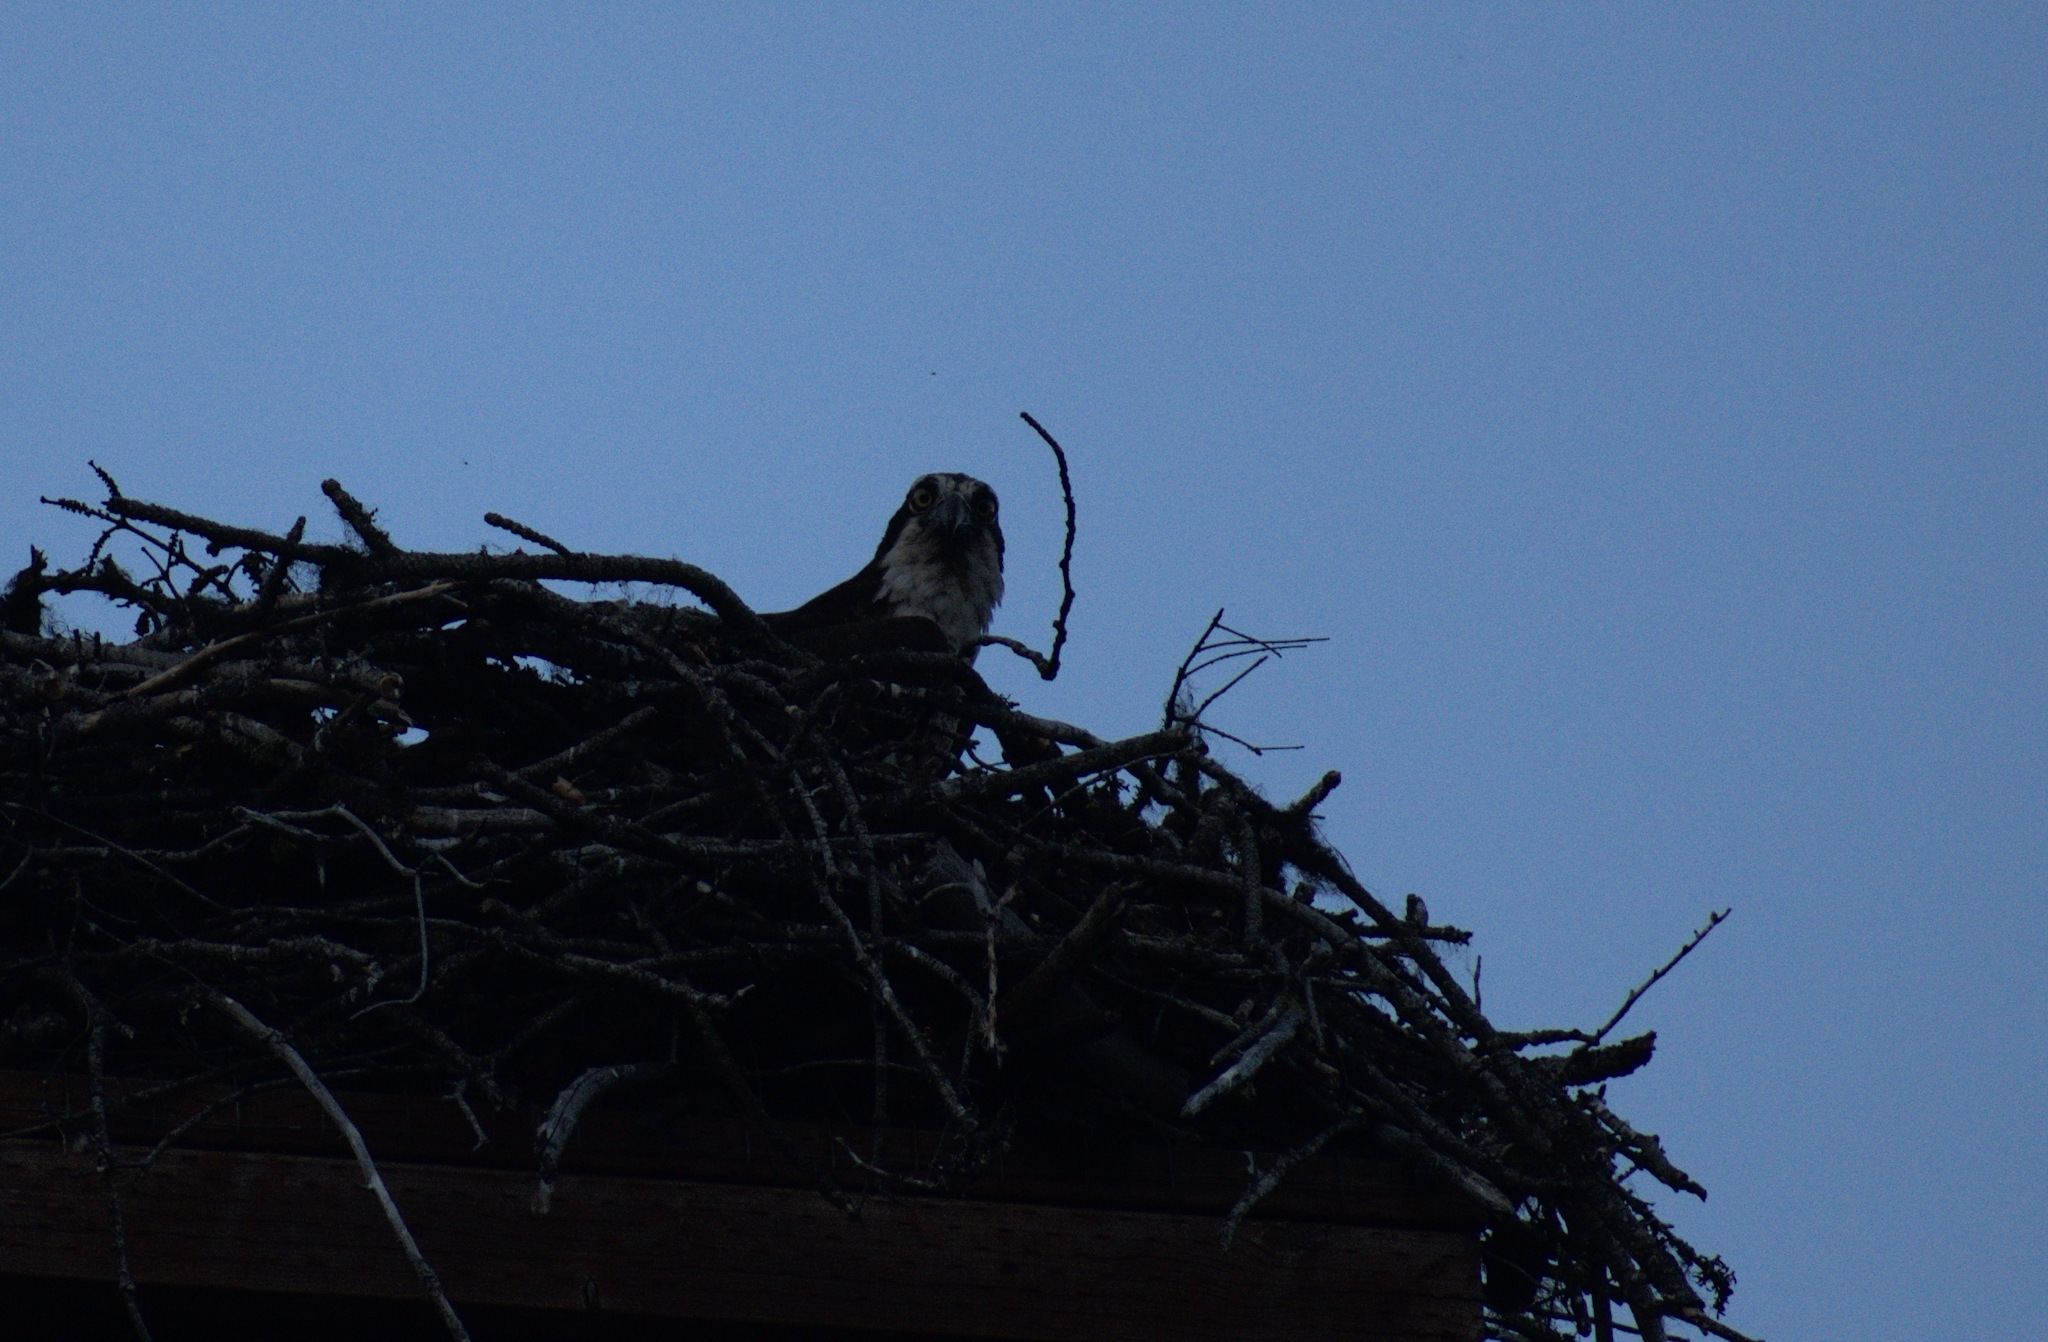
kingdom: Animalia
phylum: Chordata
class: Aves
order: Accipitriformes
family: Pandionidae
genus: Pandion
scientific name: Pandion haliaetus
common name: Osprey
